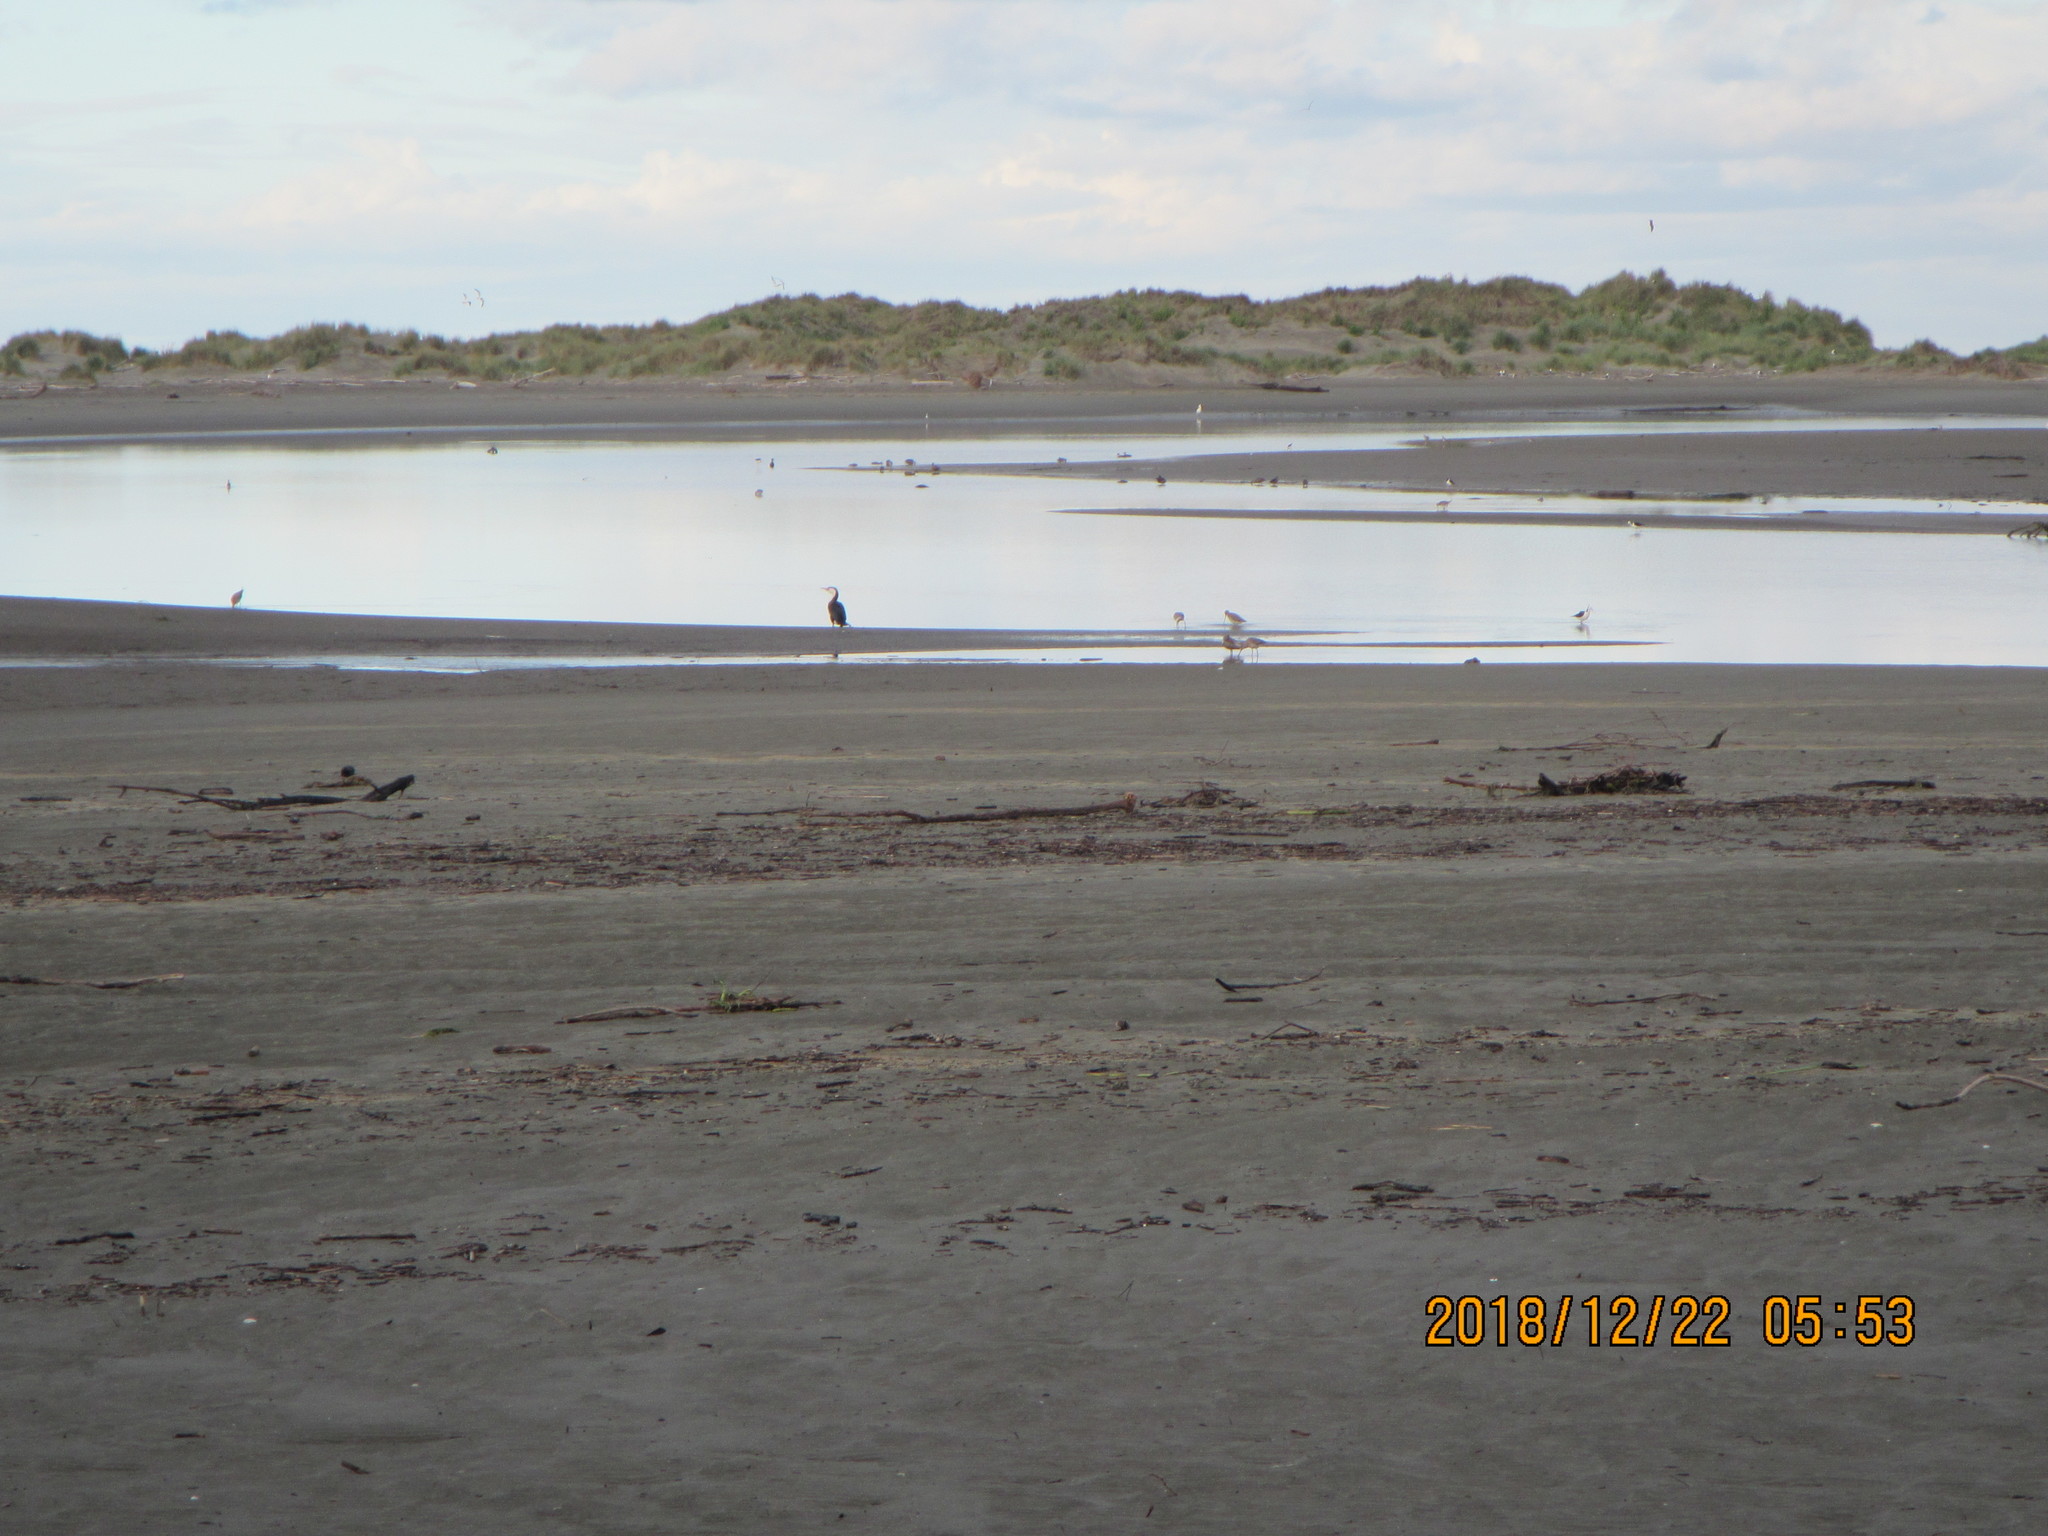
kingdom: Animalia
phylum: Chordata
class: Aves
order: Charadriiformes
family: Scolopacidae
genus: Limosa
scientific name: Limosa lapponica
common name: Bar-tailed godwit
